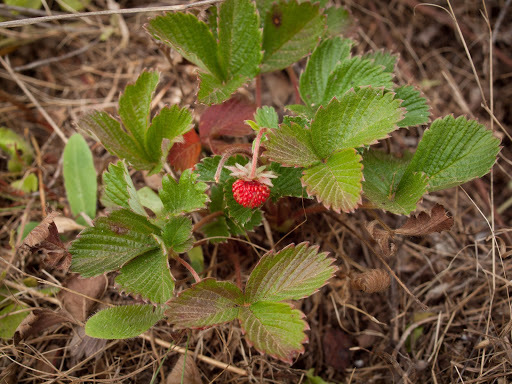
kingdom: Plantae
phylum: Tracheophyta
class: Magnoliopsida
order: Rosales
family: Rosaceae
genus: Fragaria
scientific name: Fragaria vesca
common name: Wild strawberry
